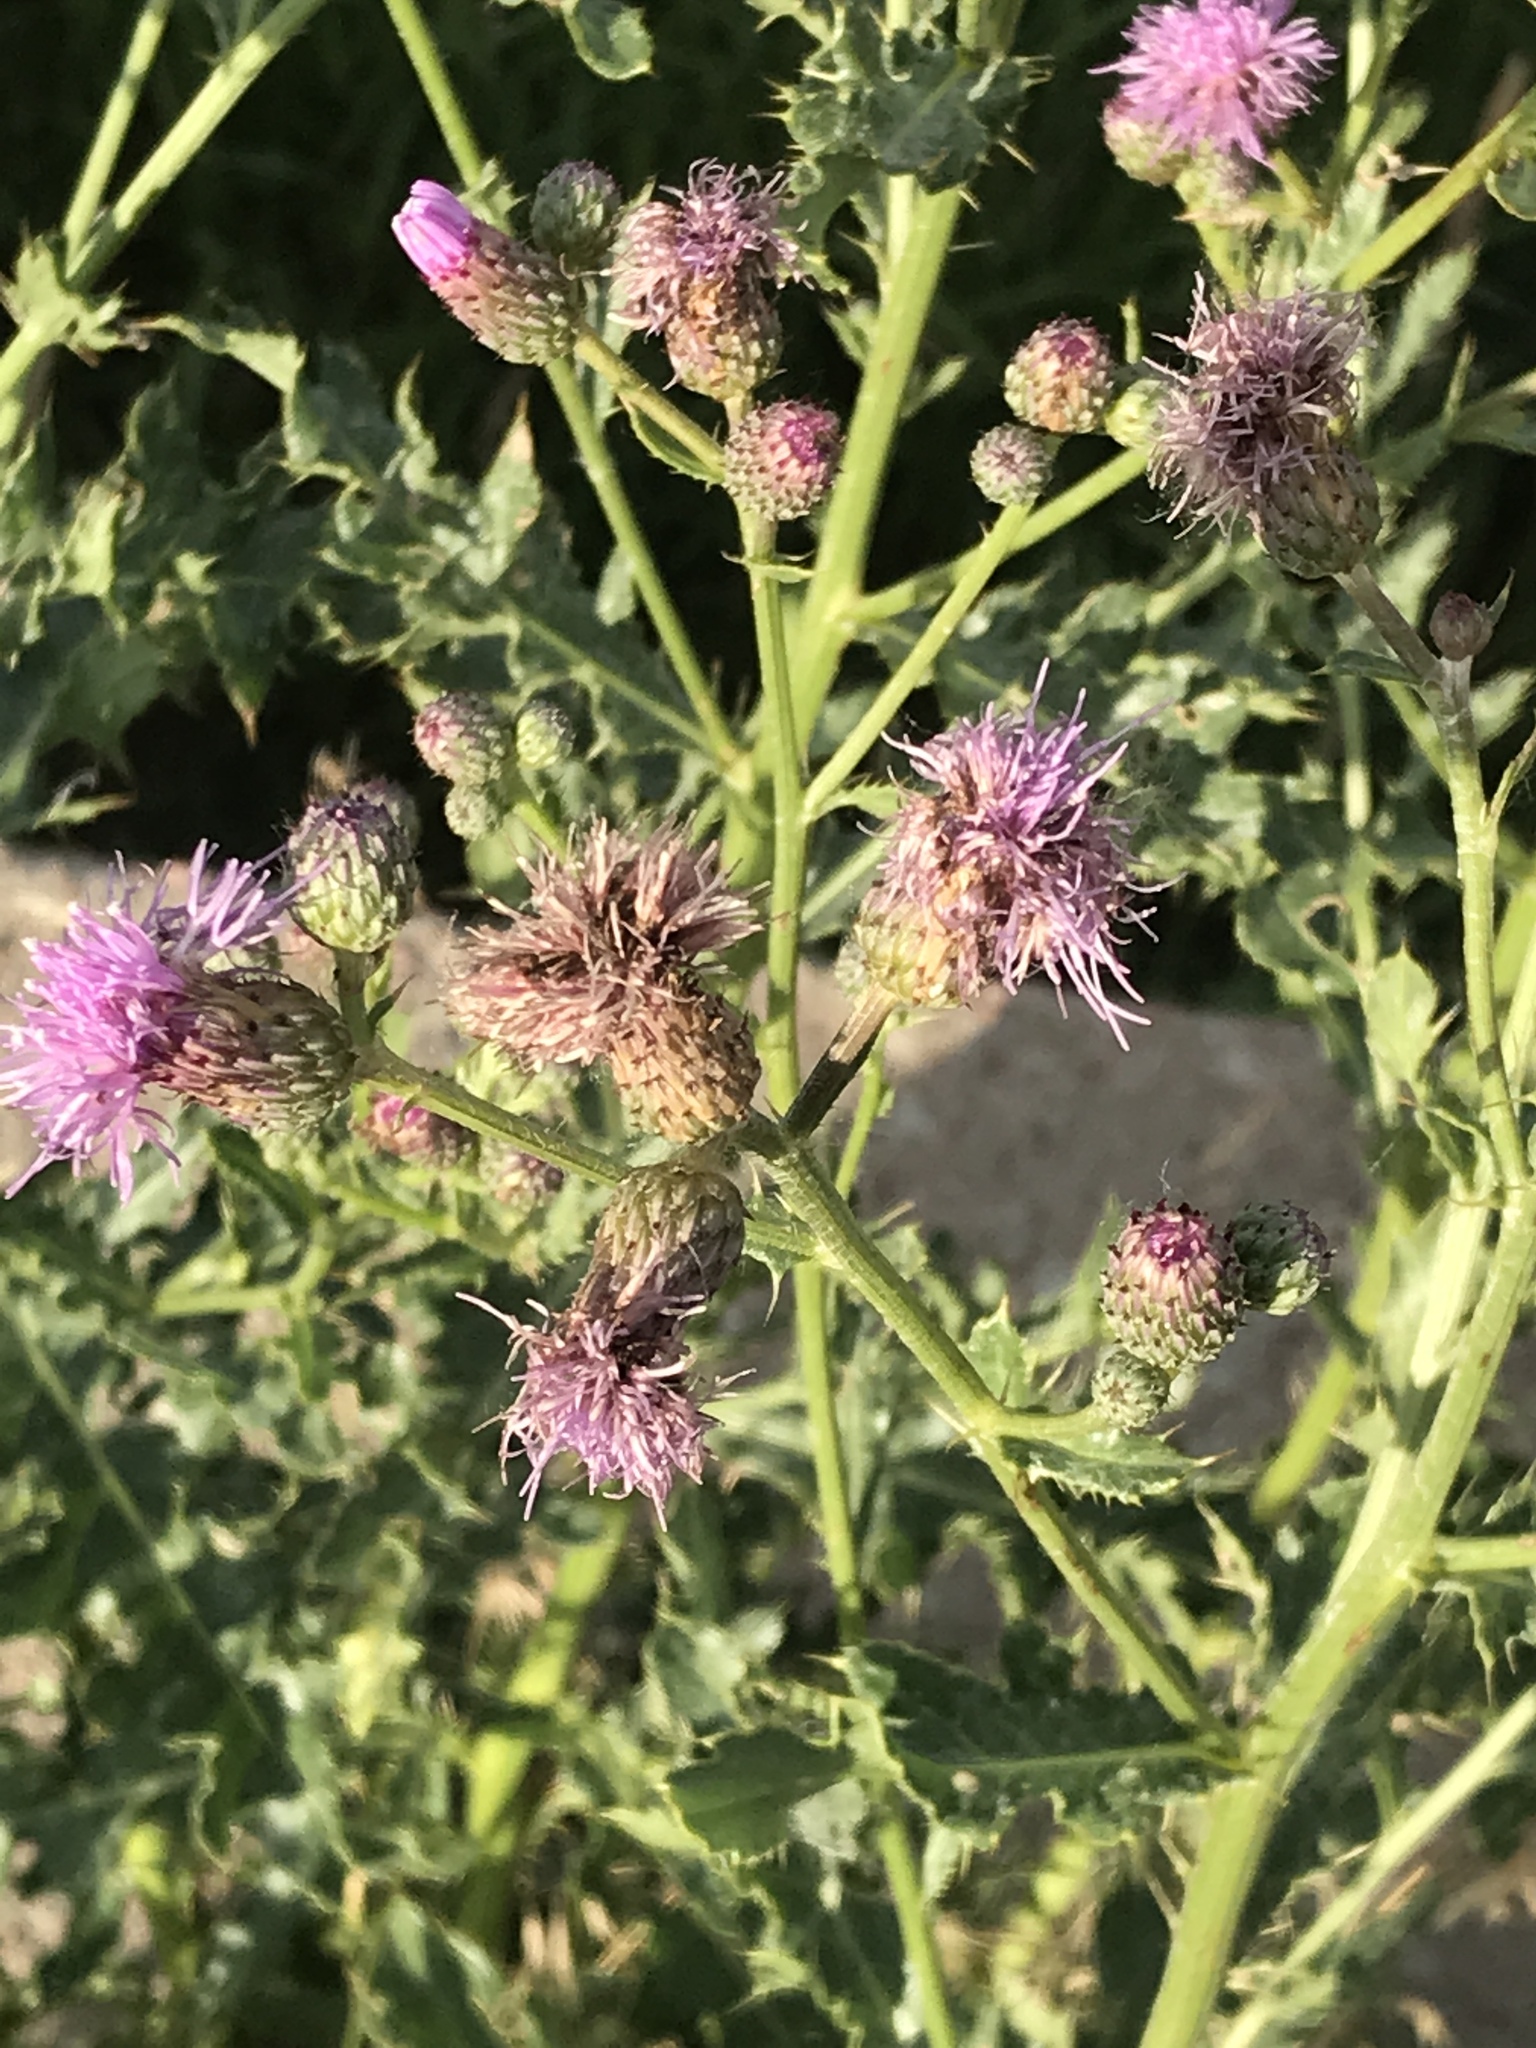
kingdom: Plantae
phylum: Tracheophyta
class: Magnoliopsida
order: Asterales
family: Asteraceae
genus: Cirsium
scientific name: Cirsium arvense
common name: Creeping thistle
